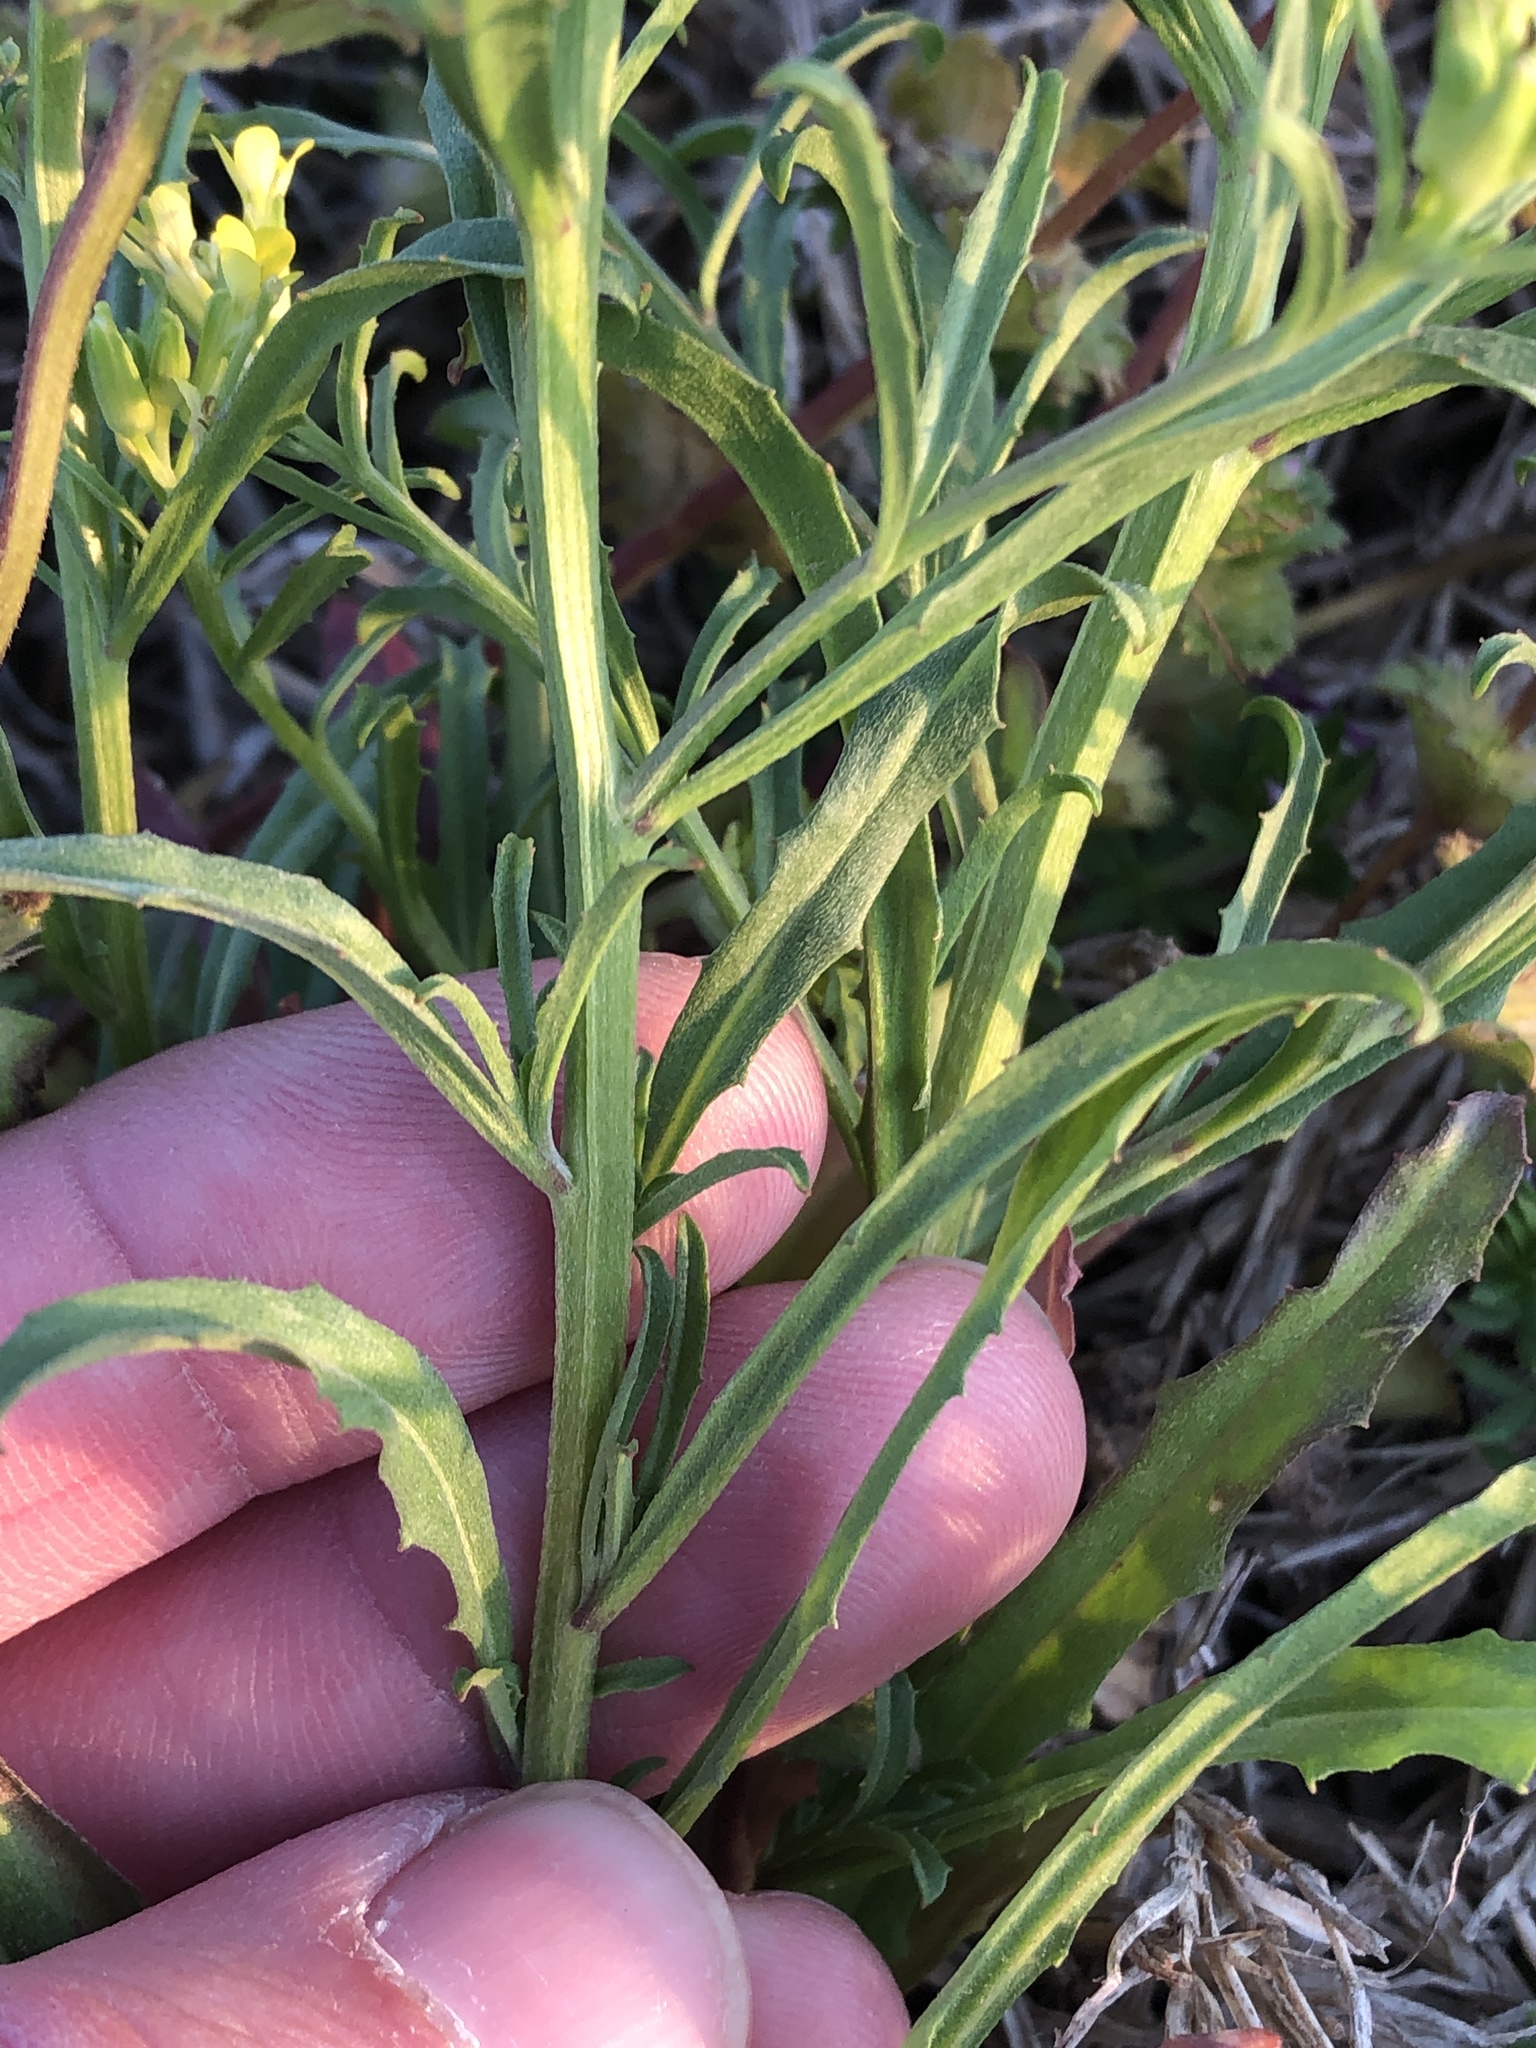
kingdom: Plantae
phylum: Tracheophyta
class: Magnoliopsida
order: Brassicales
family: Brassicaceae
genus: Sisymbrium
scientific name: Sisymbrium altissimum
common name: Tall rocket
